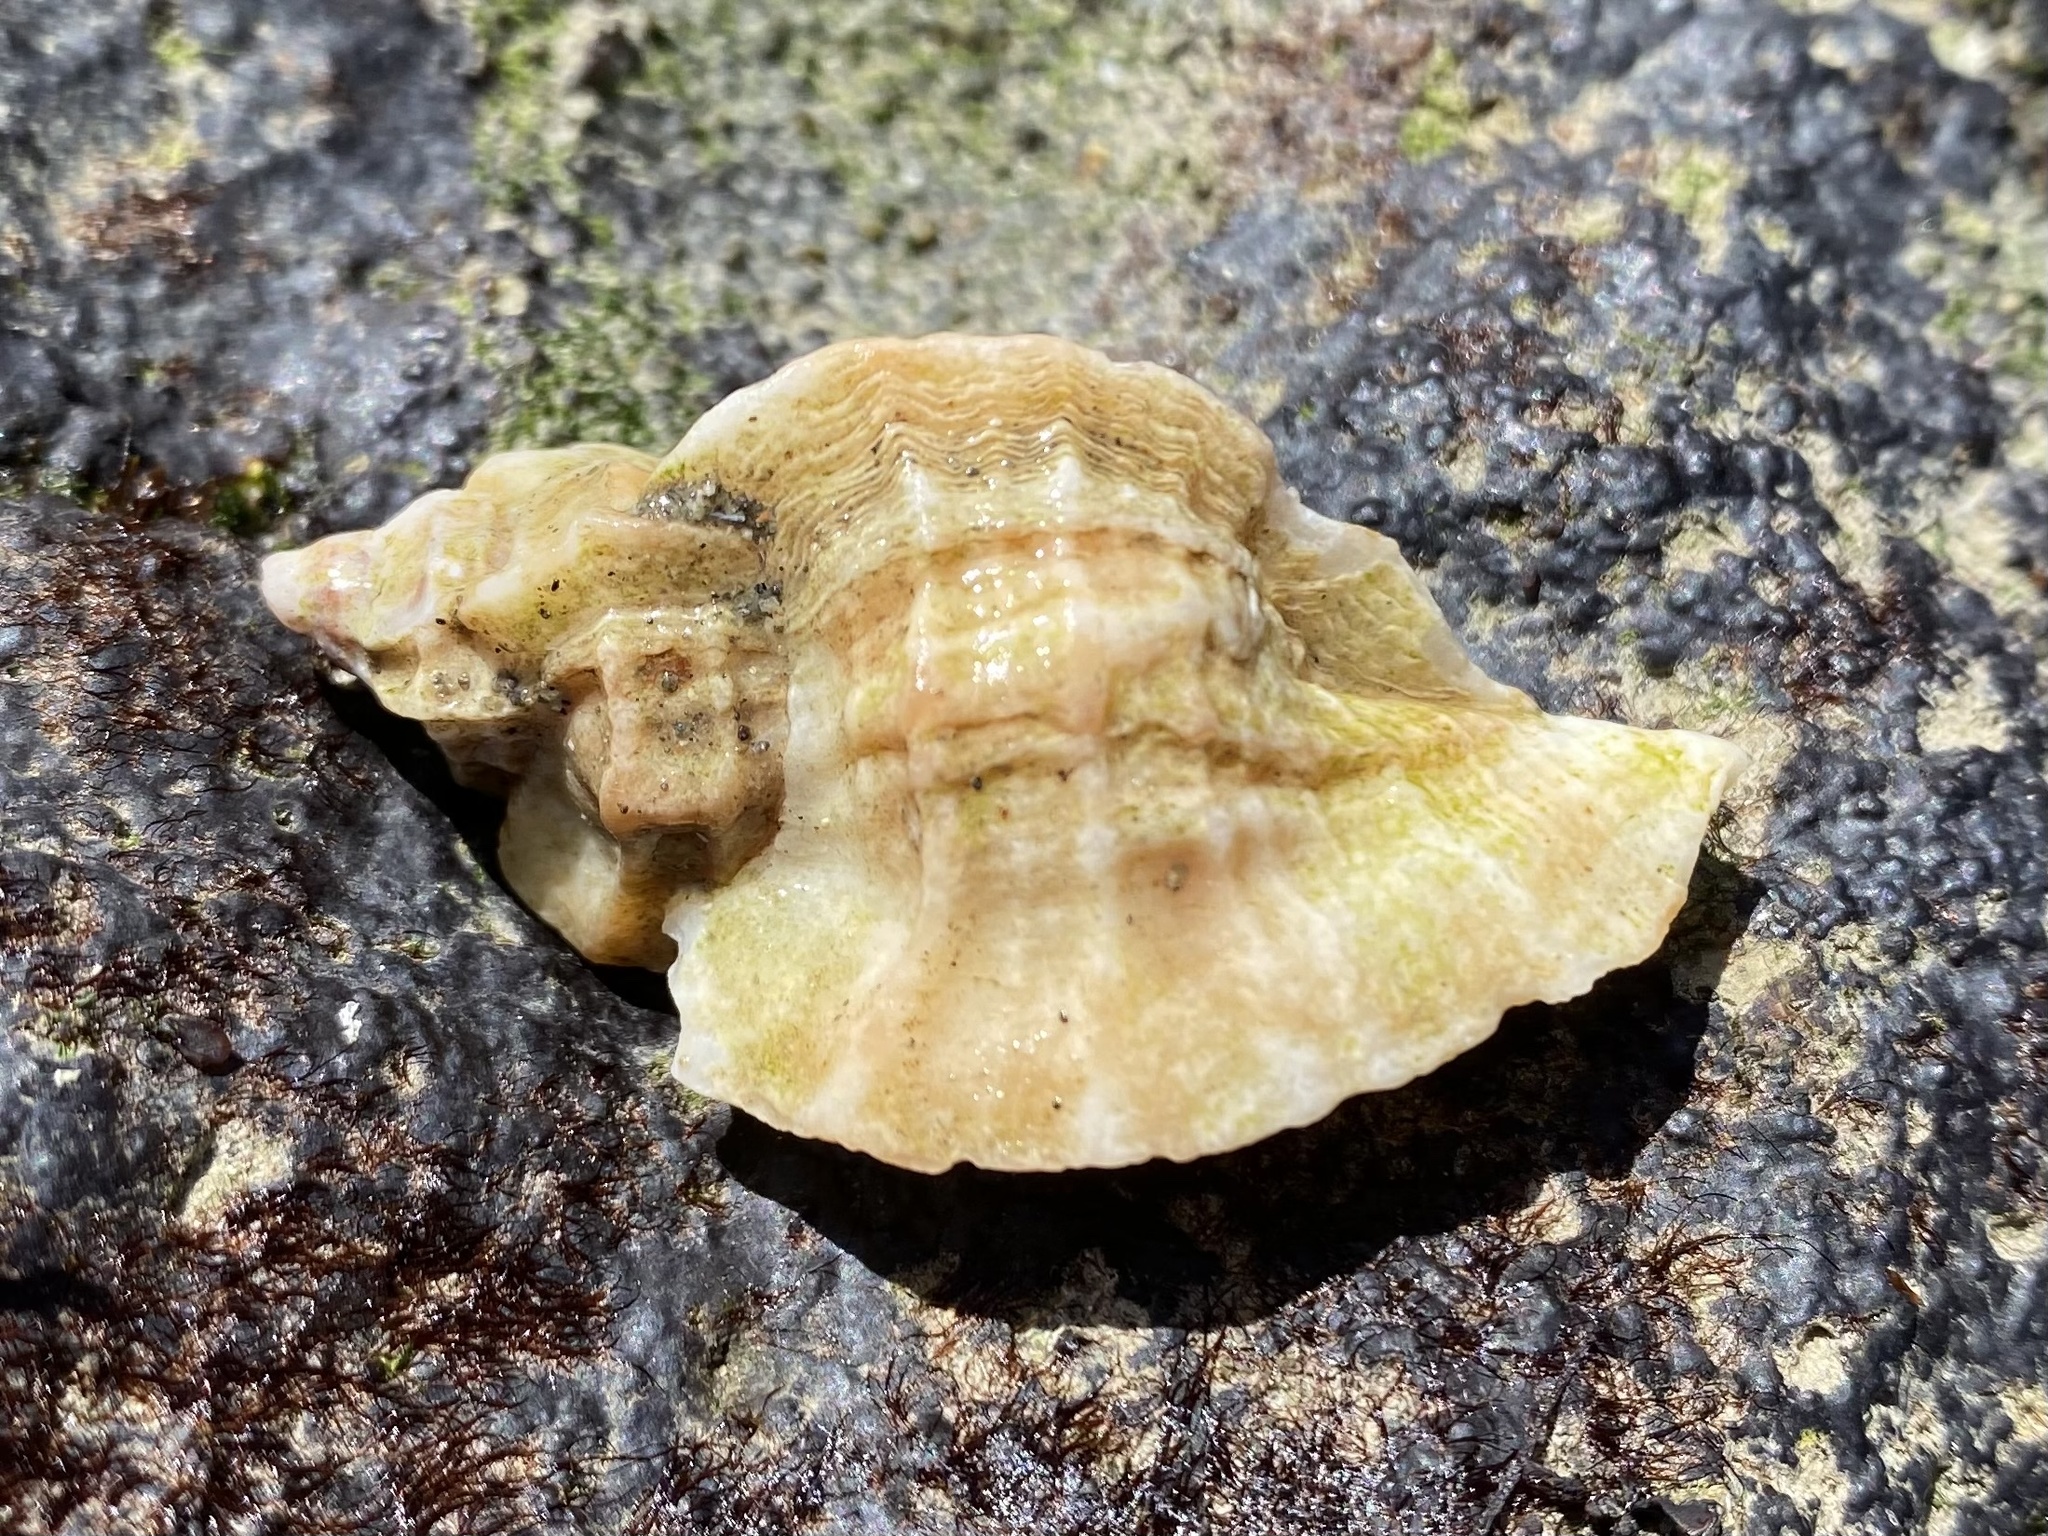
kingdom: Animalia
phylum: Mollusca
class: Gastropoda
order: Neogastropoda
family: Muricidae
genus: Ceratostoma
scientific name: Ceratostoma foliatum
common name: Foliate thorn purpura
